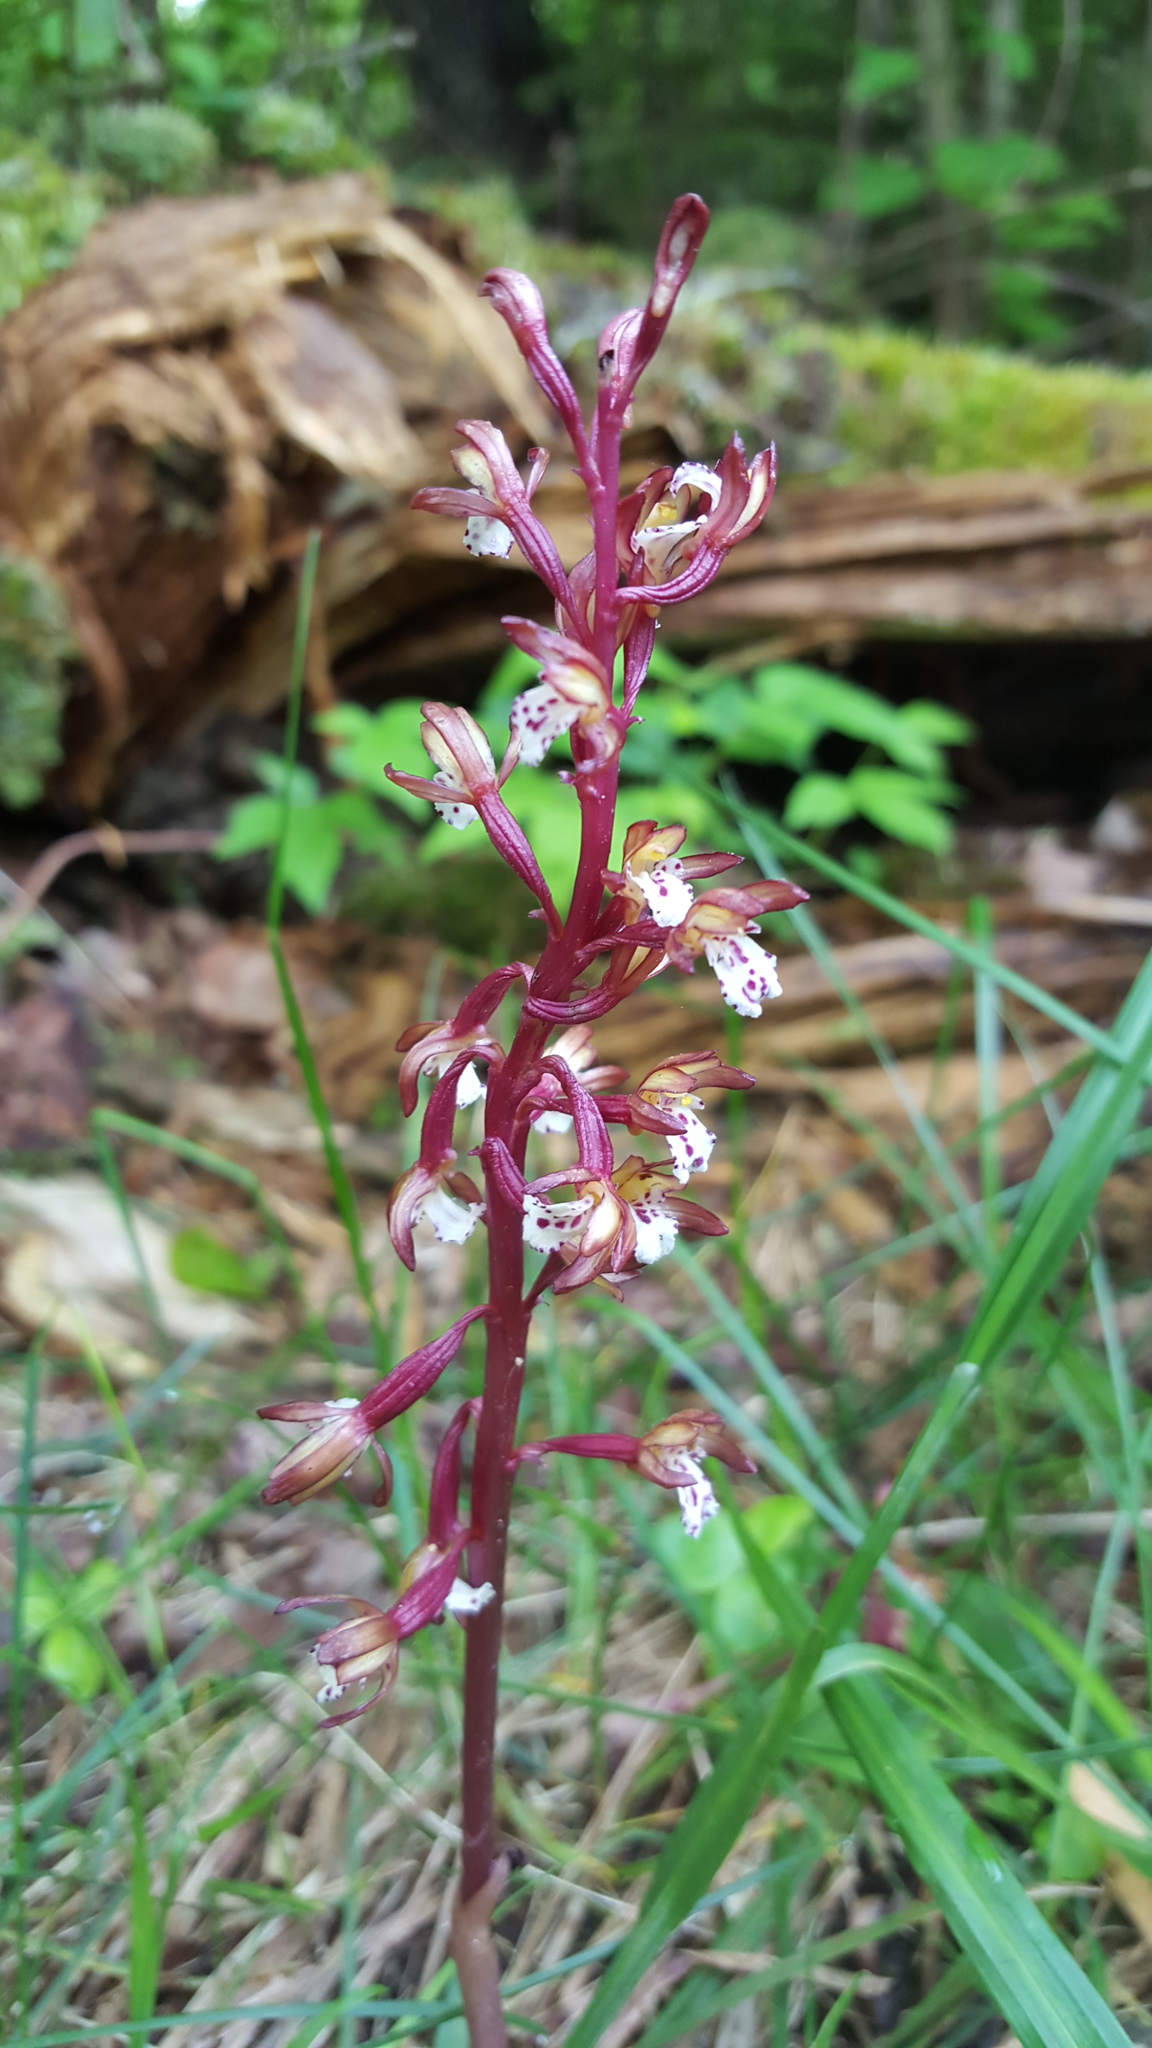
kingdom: Plantae
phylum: Tracheophyta
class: Liliopsida
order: Asparagales
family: Orchidaceae
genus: Corallorhiza
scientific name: Corallorhiza maculata
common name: Spotted coralroot
